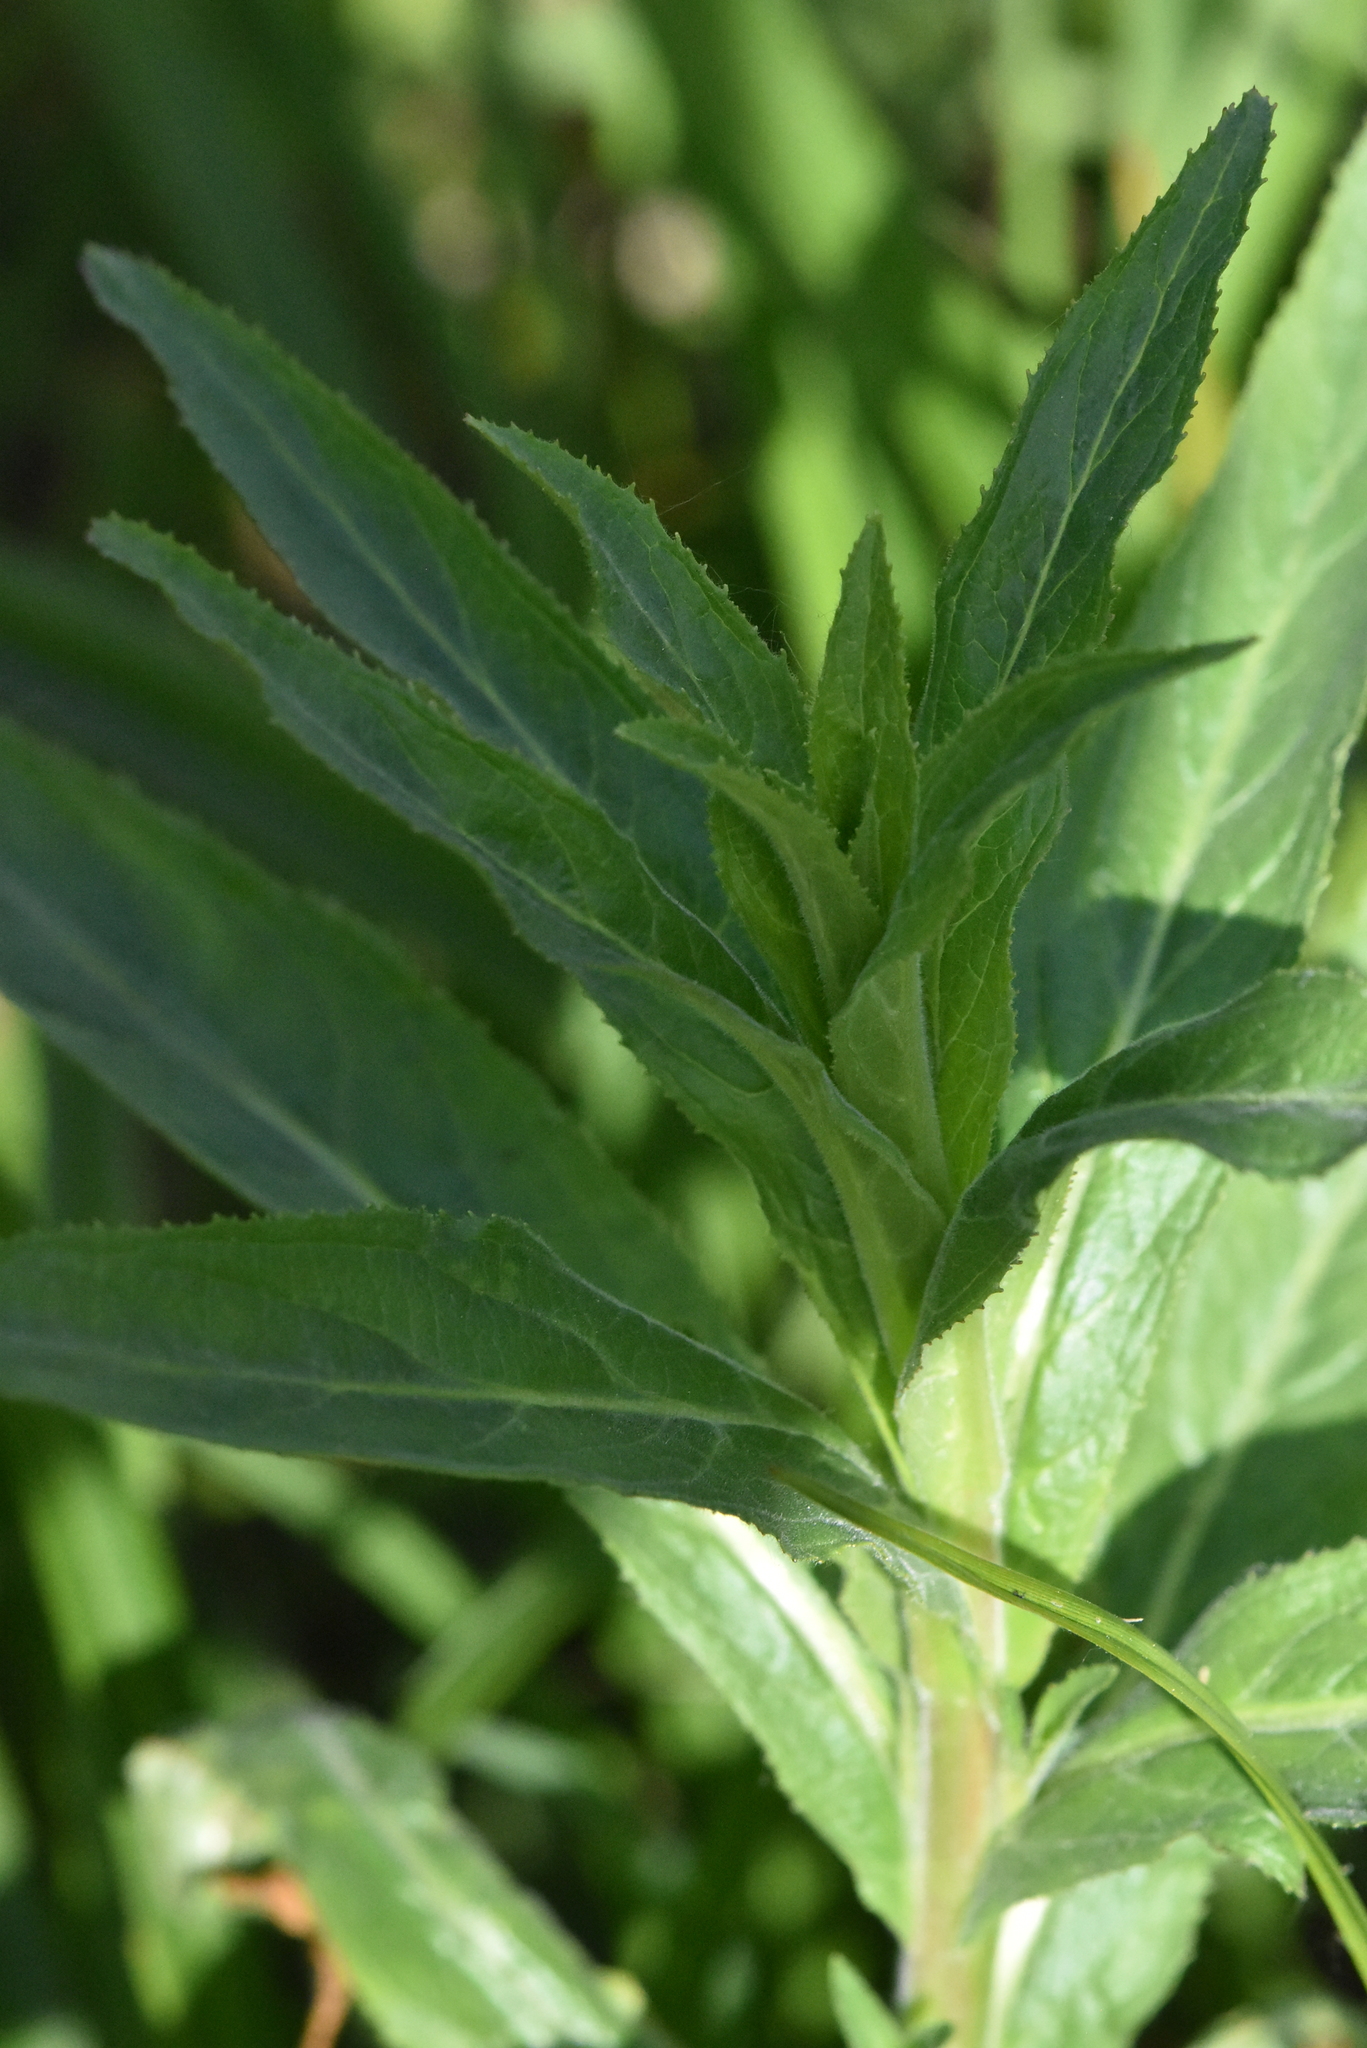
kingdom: Plantae
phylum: Tracheophyta
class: Magnoliopsida
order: Myrtales
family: Onagraceae
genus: Epilobium
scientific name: Epilobium hirsutum
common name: Great willowherb
